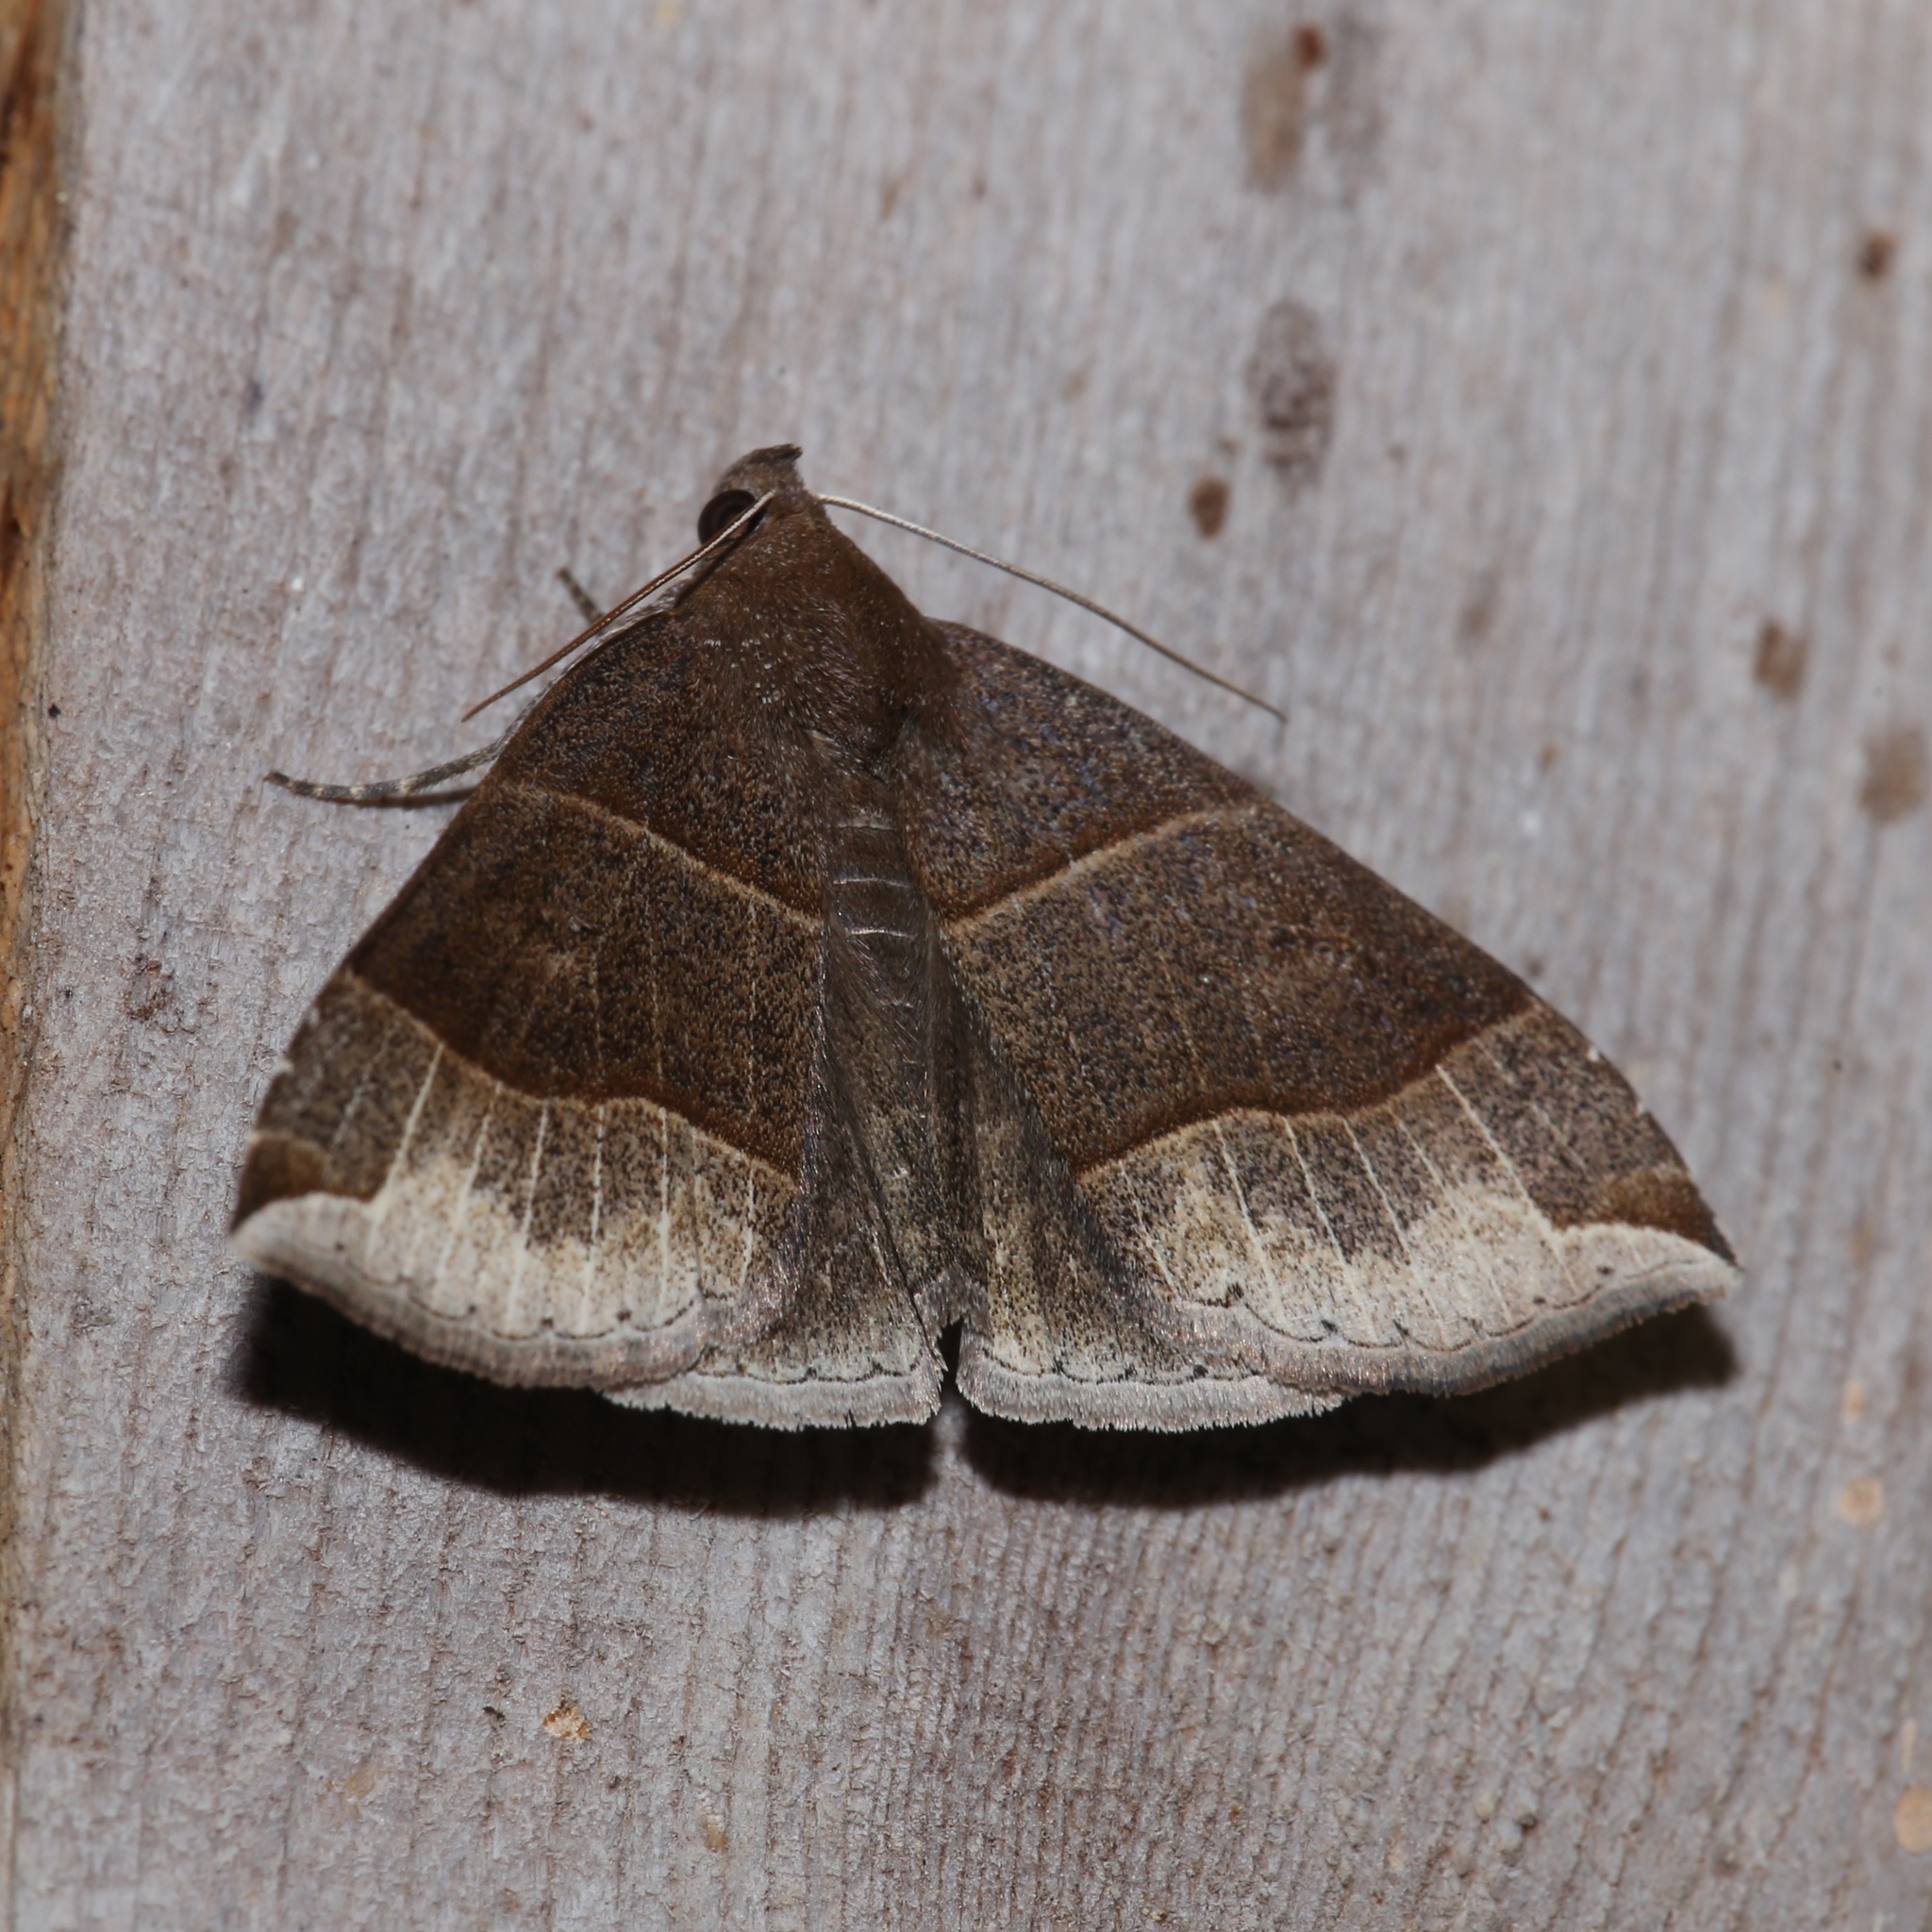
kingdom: Animalia
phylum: Arthropoda
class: Insecta
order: Lepidoptera
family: Erebidae
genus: Parallelia
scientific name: Parallelia bistriaris
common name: Maple looper moth
